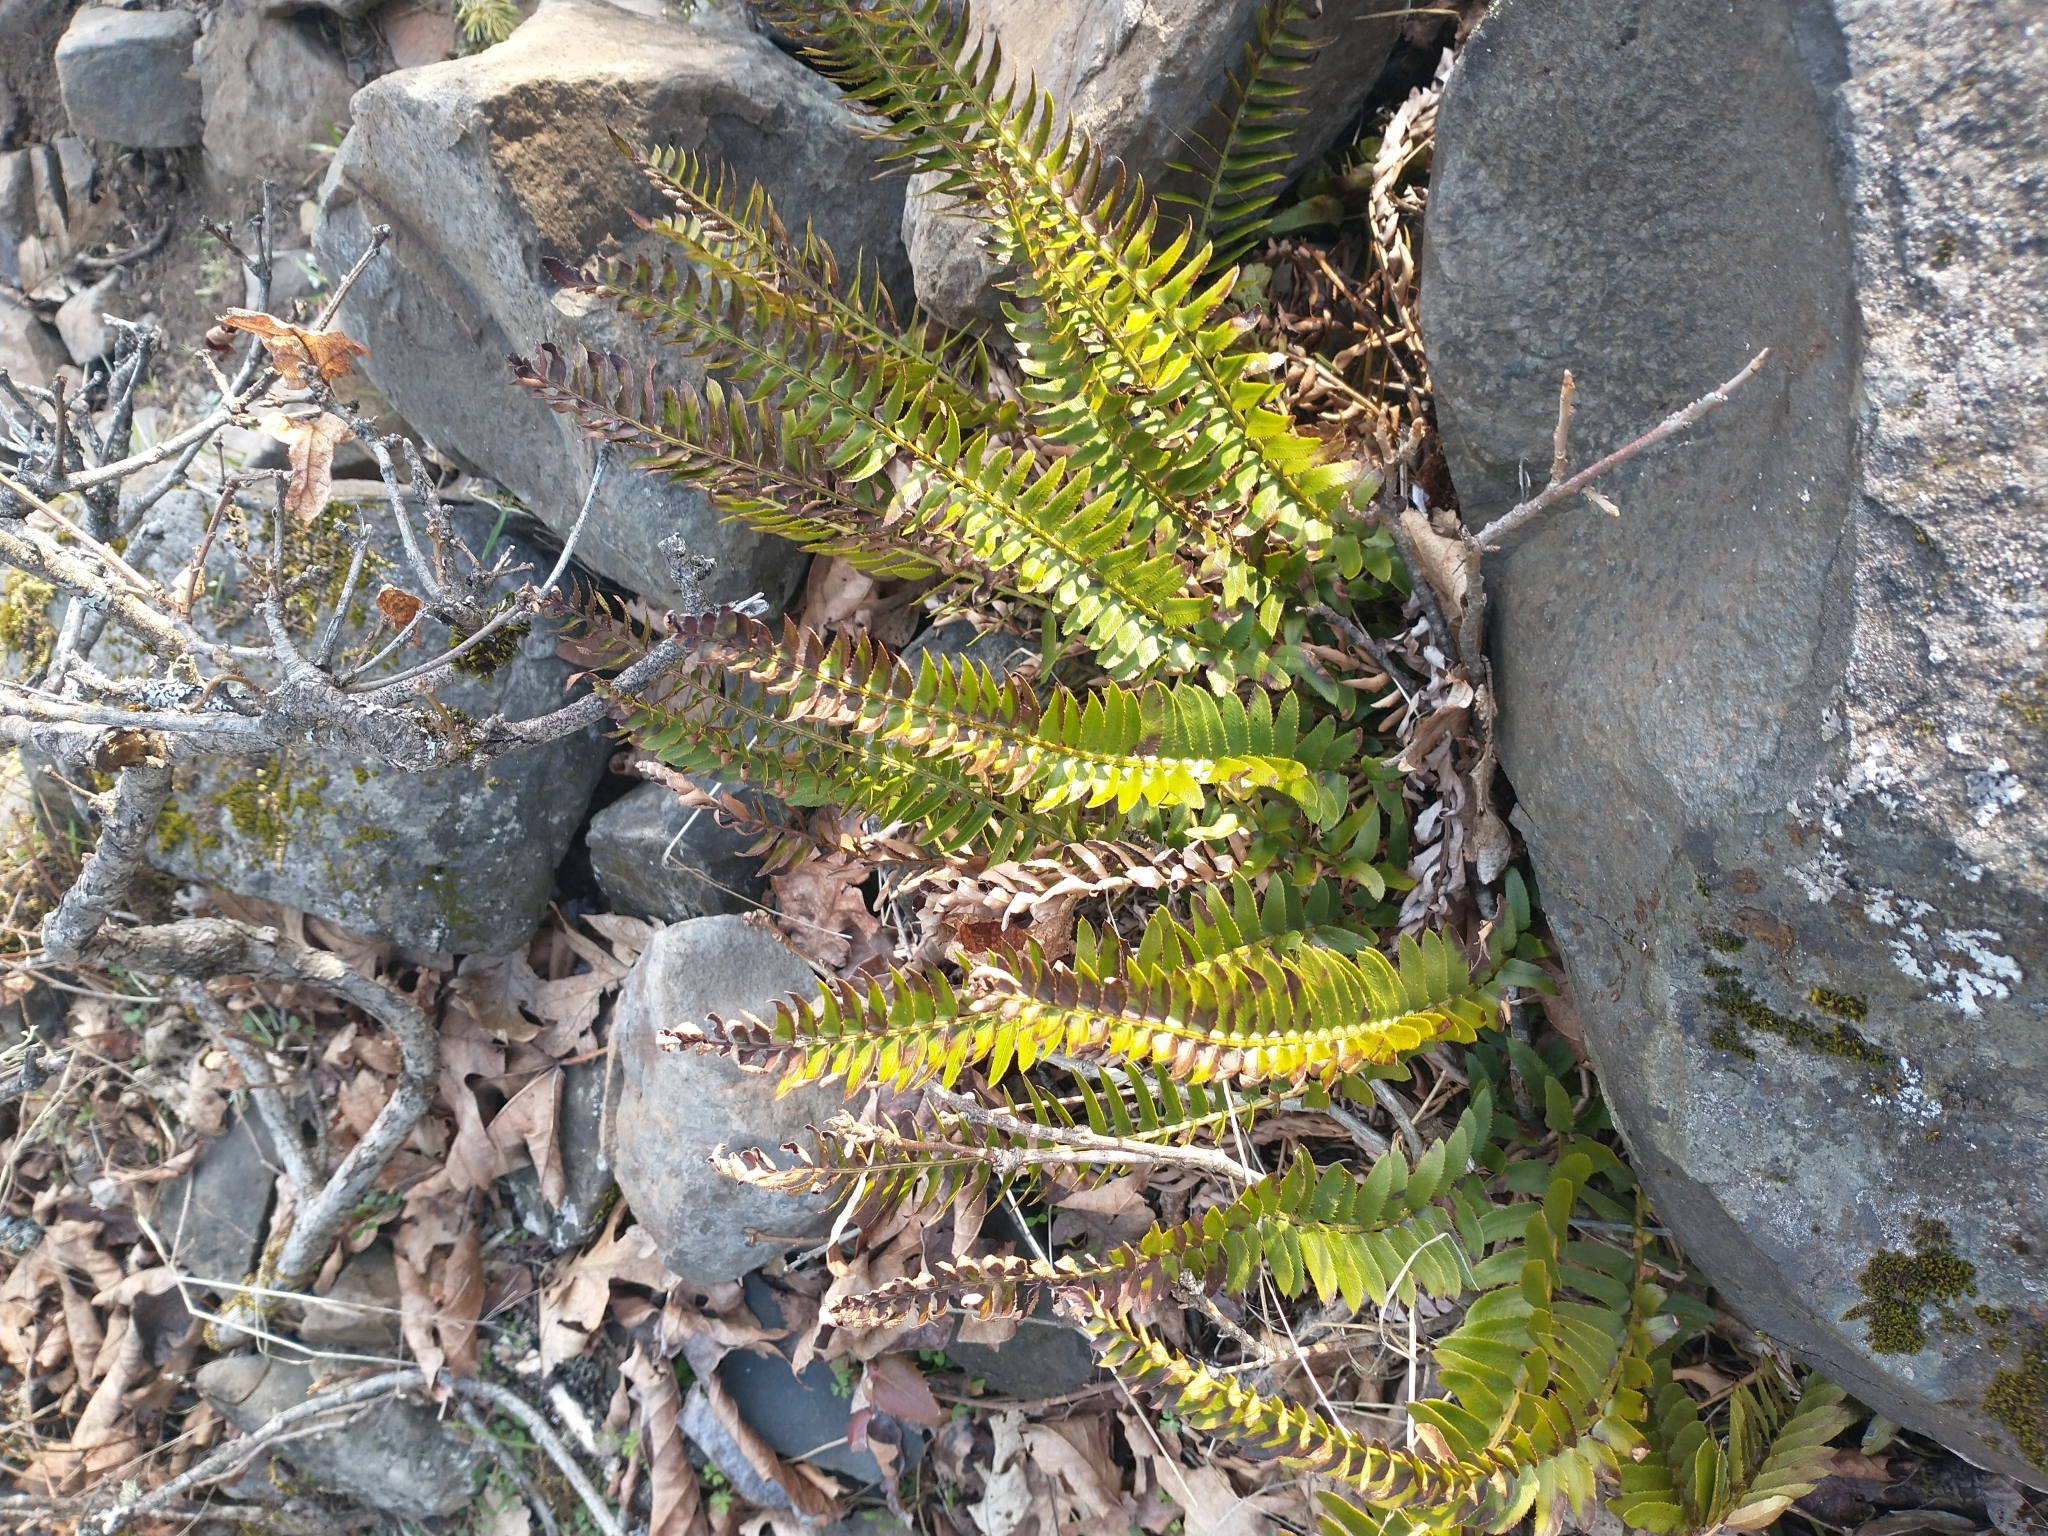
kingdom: Plantae
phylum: Tracheophyta
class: Polypodiopsida
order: Polypodiales
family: Dryopteridaceae
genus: Polystichum
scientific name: Polystichum imbricans
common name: Dwarf western sword fern
